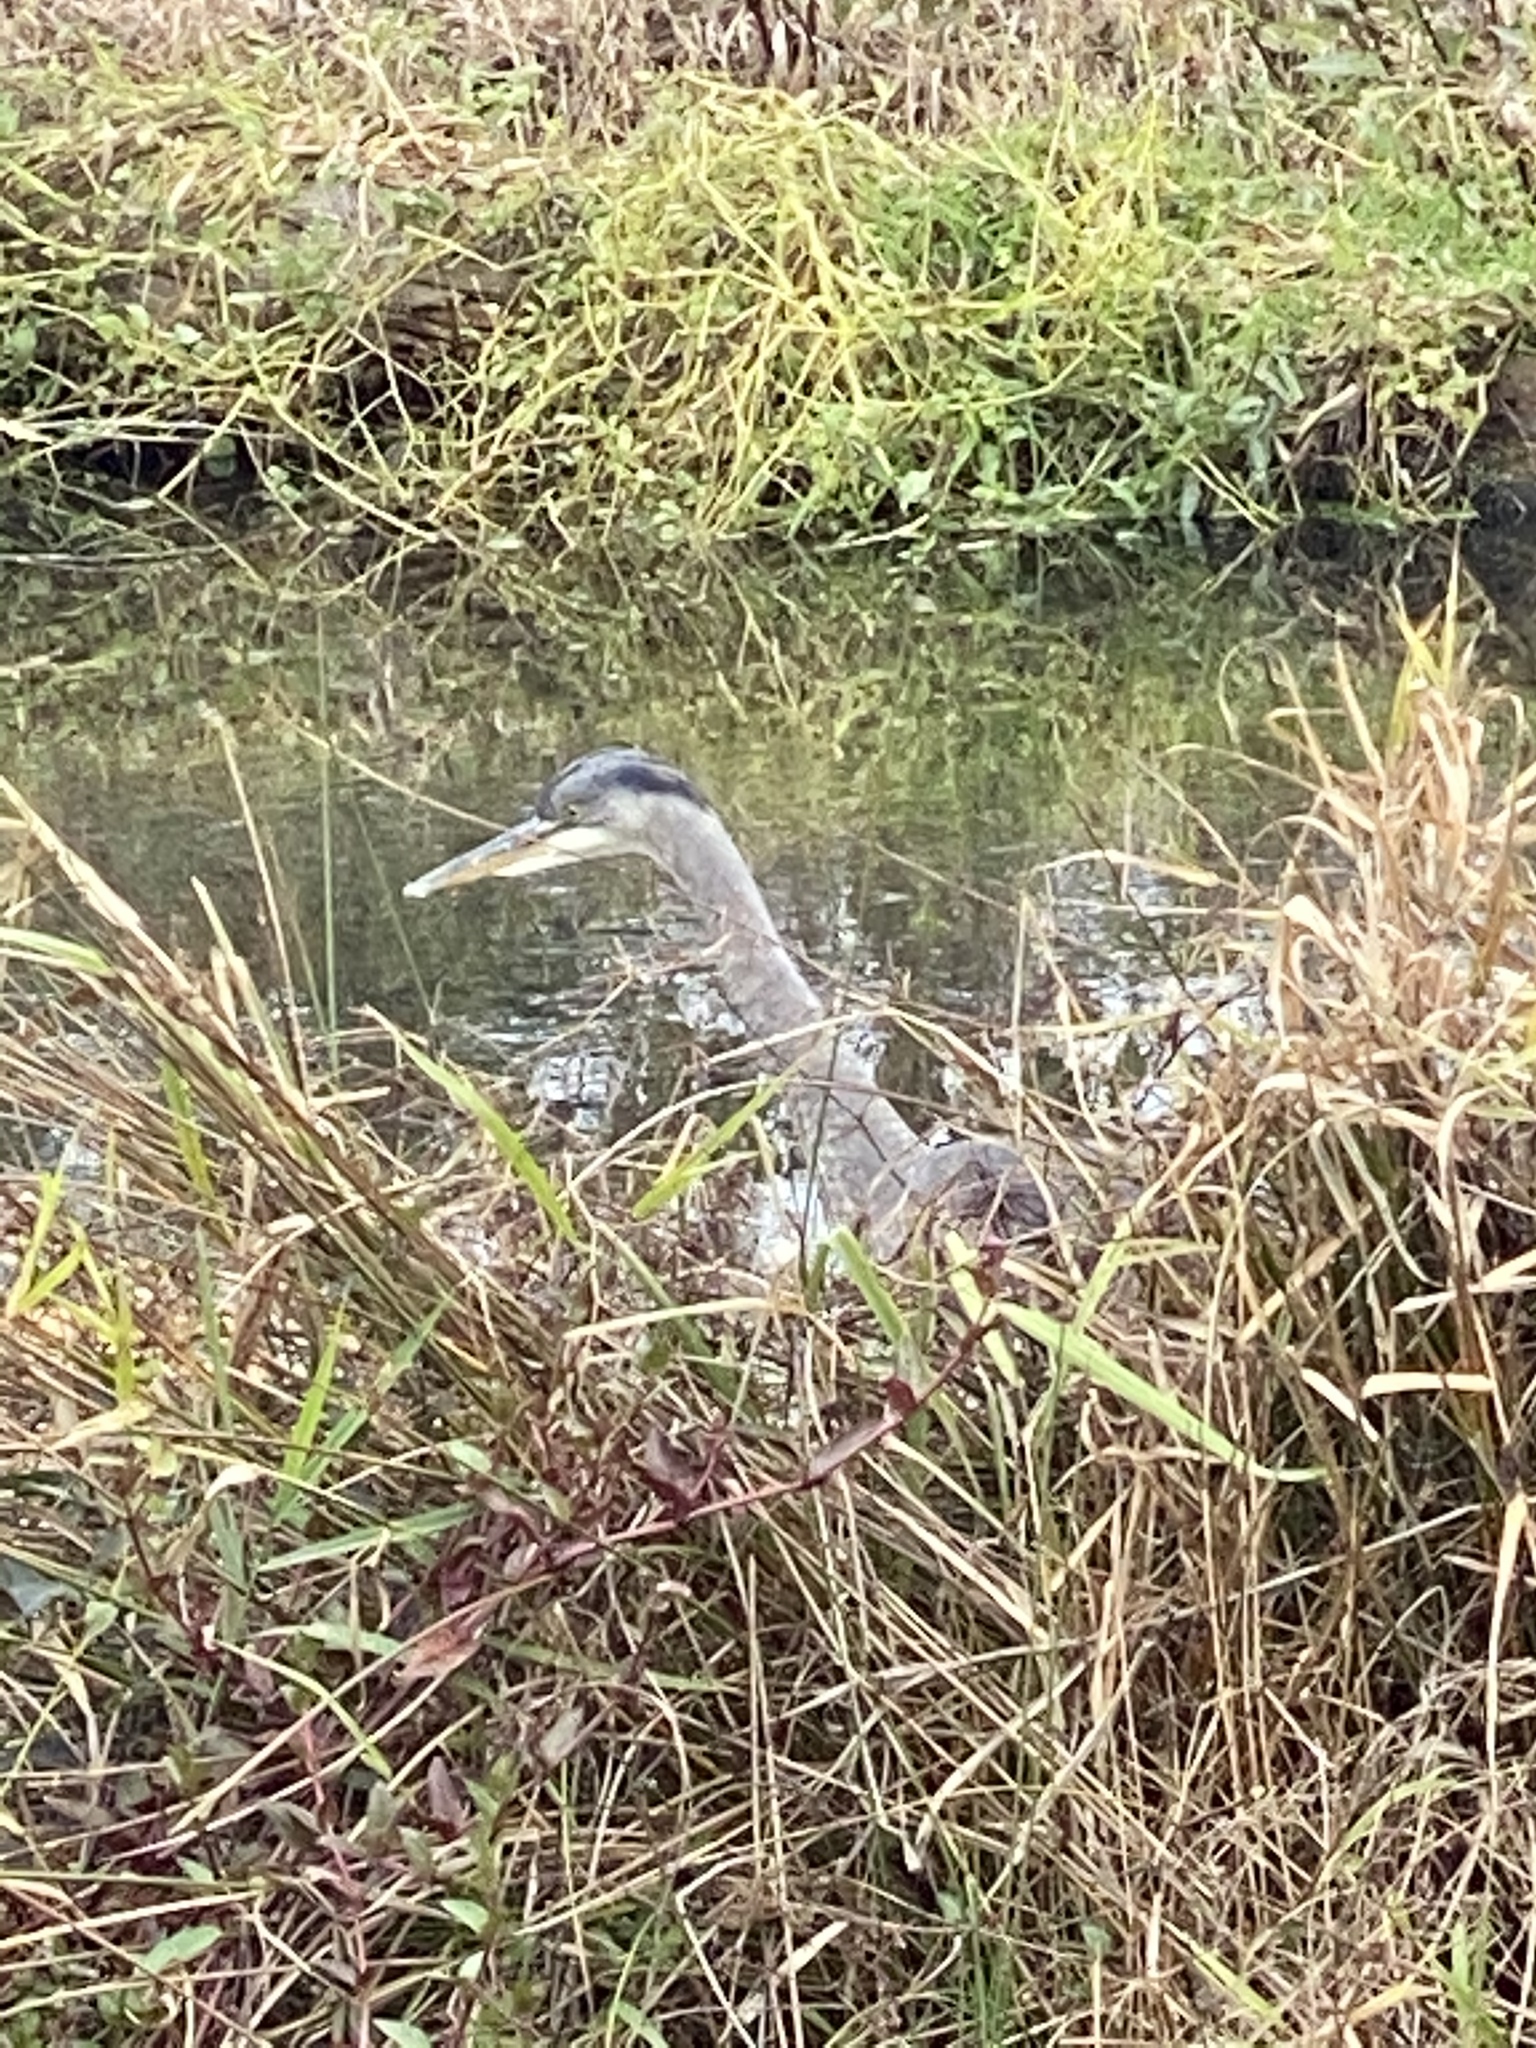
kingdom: Animalia
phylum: Chordata
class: Aves
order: Pelecaniformes
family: Ardeidae
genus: Ardea
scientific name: Ardea herodias
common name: Great blue heron
